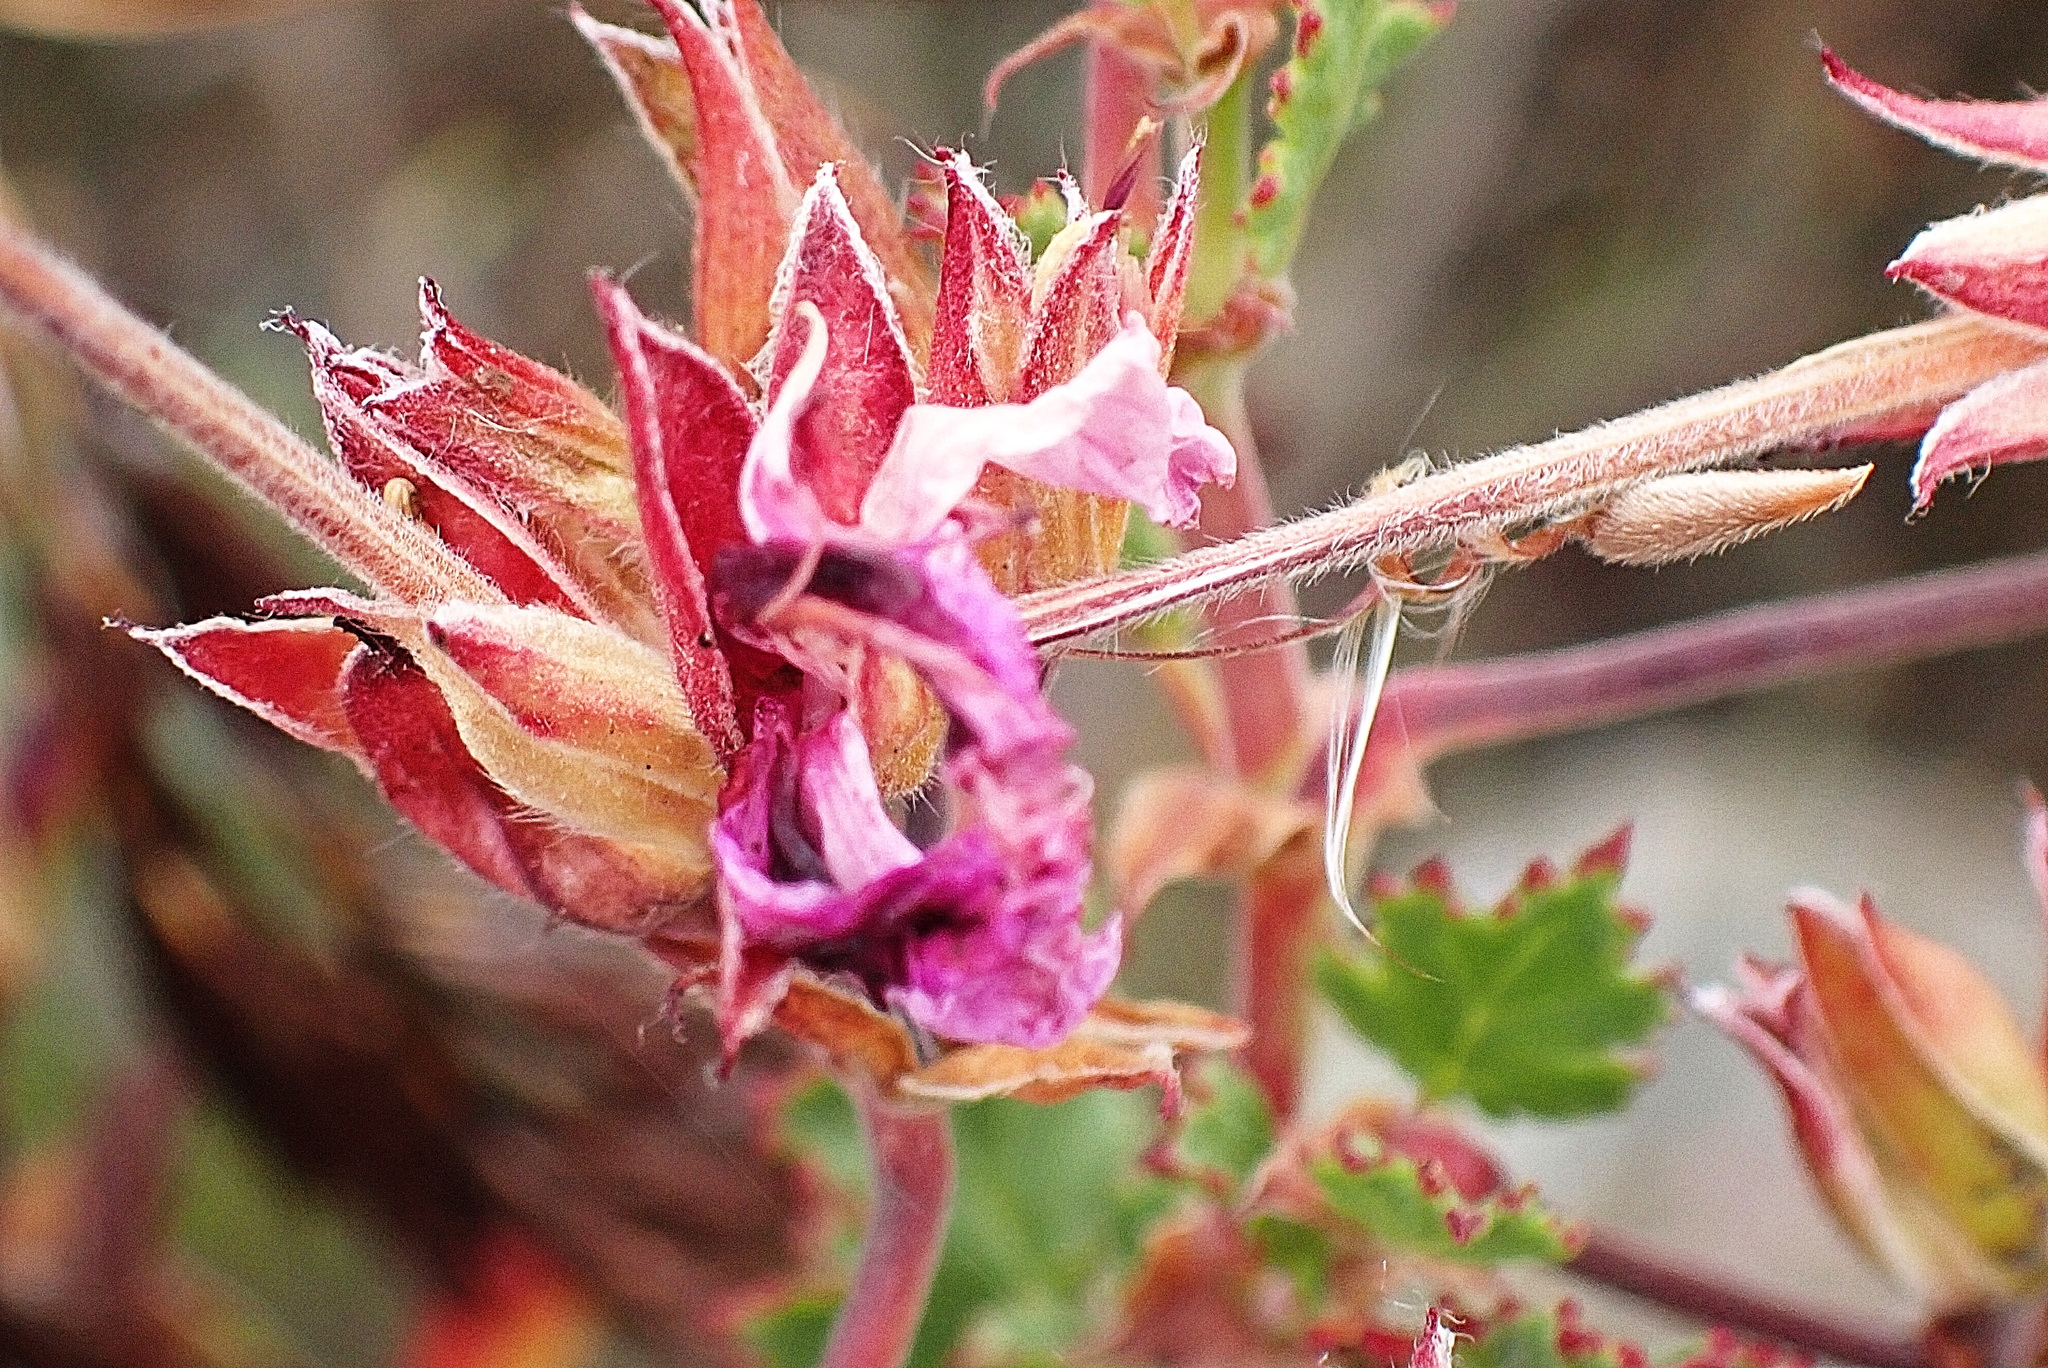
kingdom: Plantae
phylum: Tracheophyta
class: Magnoliopsida
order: Geraniales
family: Geraniaceae
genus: Pelargonium
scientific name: Pelargonium betulinum
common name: Birch-leaf pelargonium
